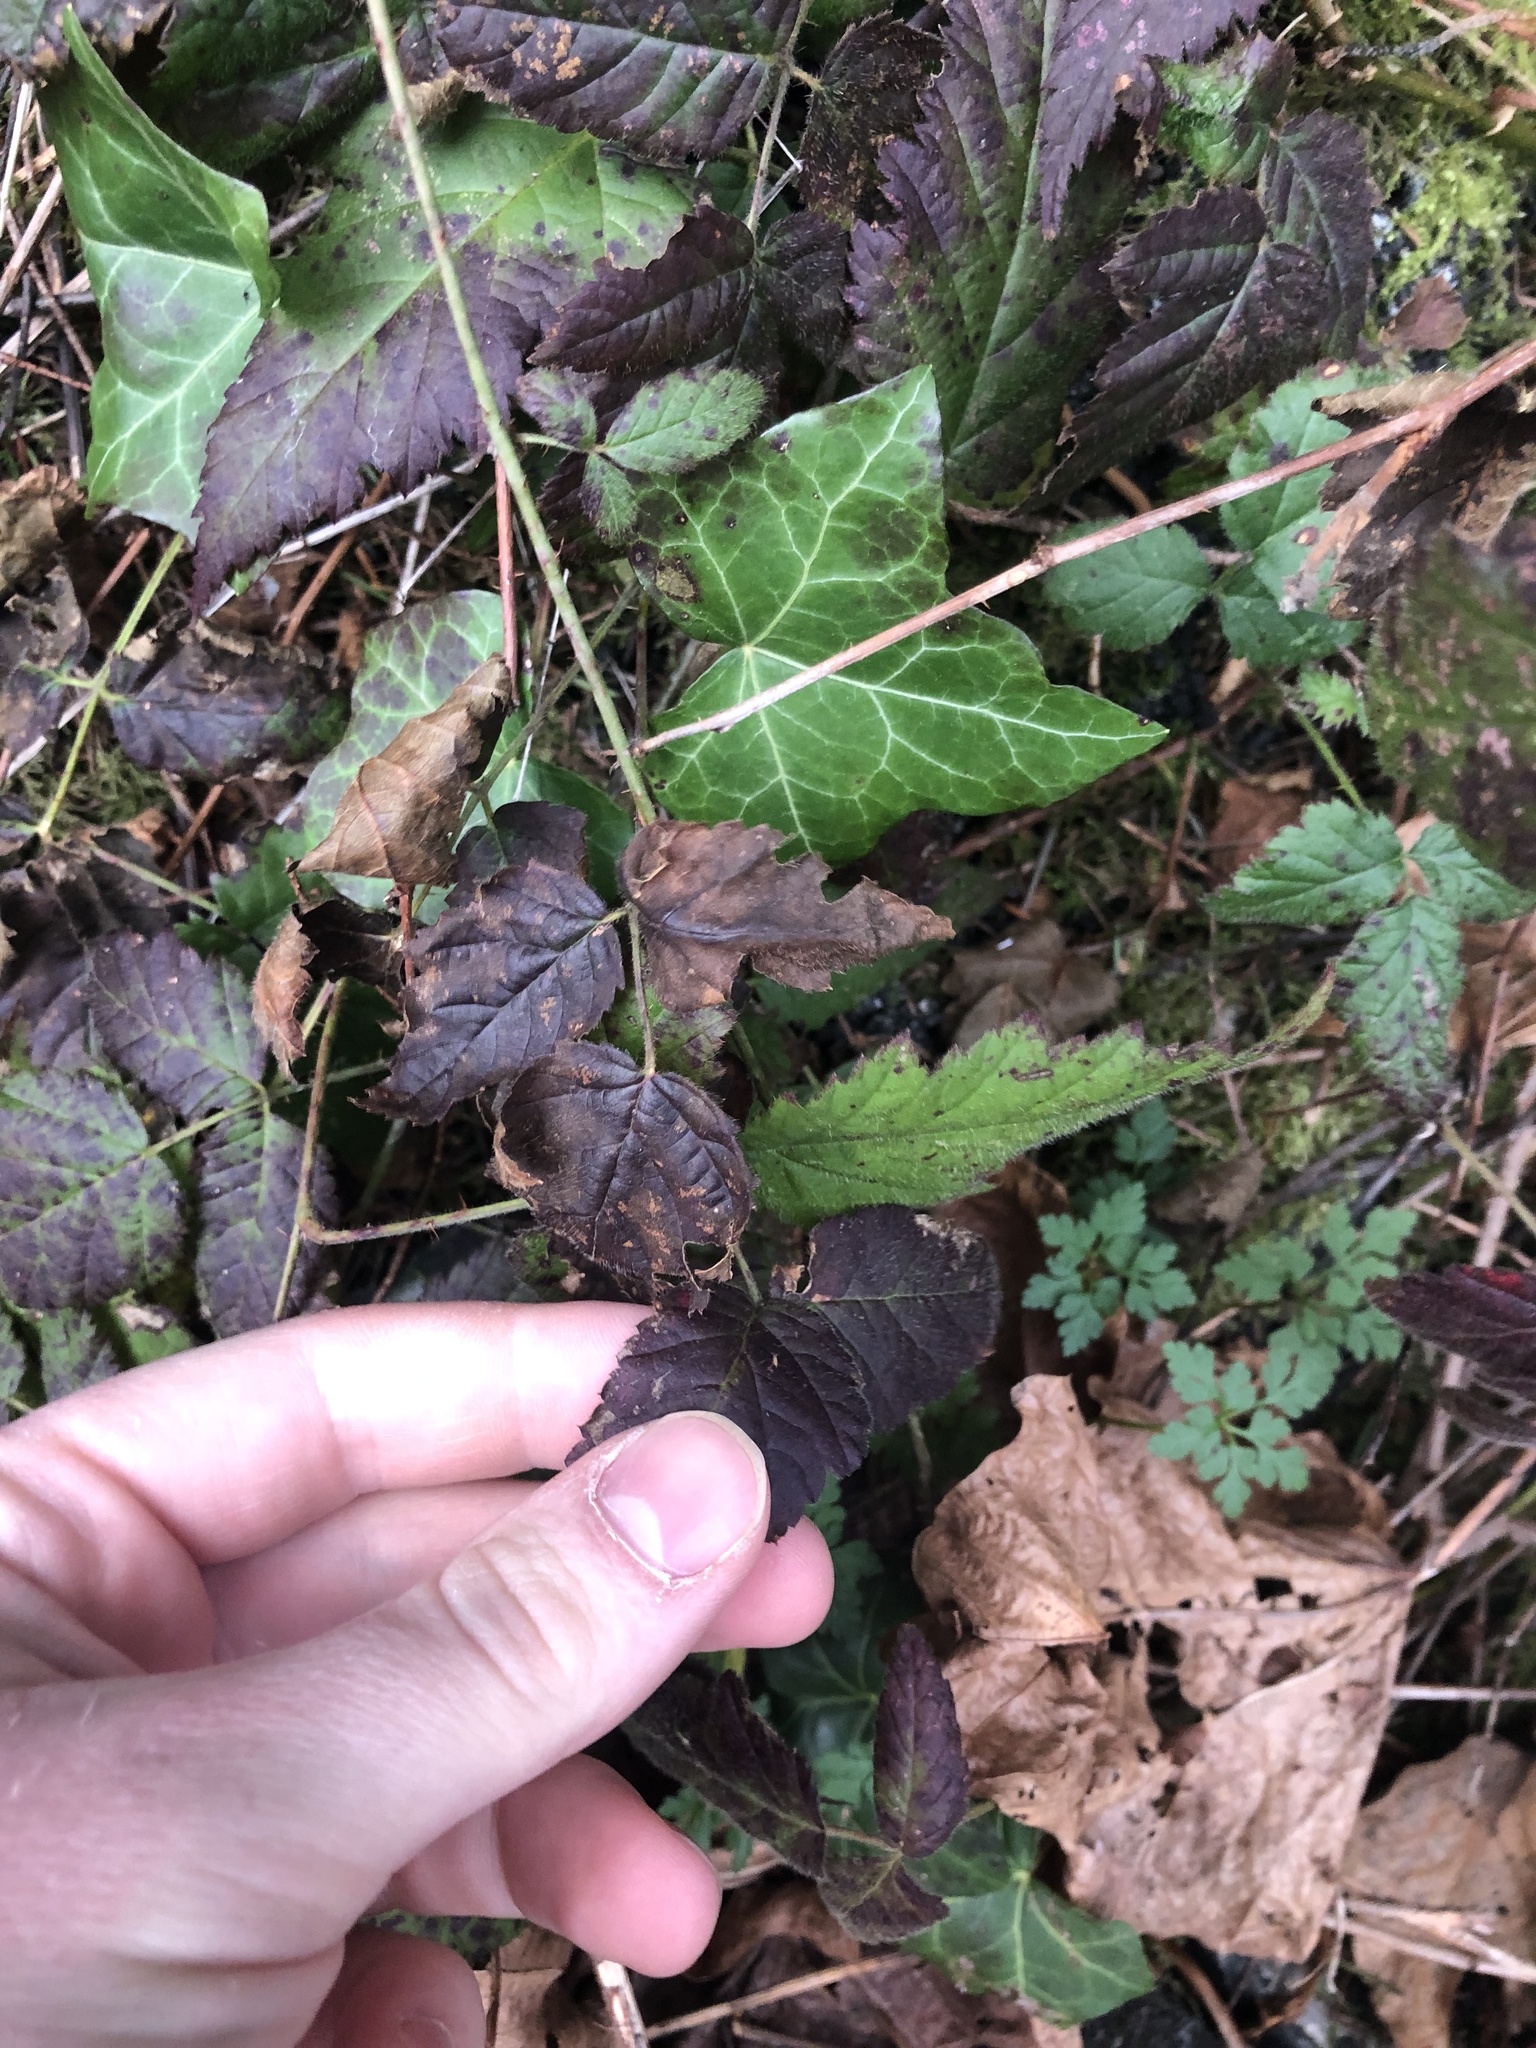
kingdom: Plantae
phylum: Tracheophyta
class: Magnoliopsida
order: Rosales
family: Rosaceae
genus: Rubus
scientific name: Rubus ursinus
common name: Pacific blackberry
